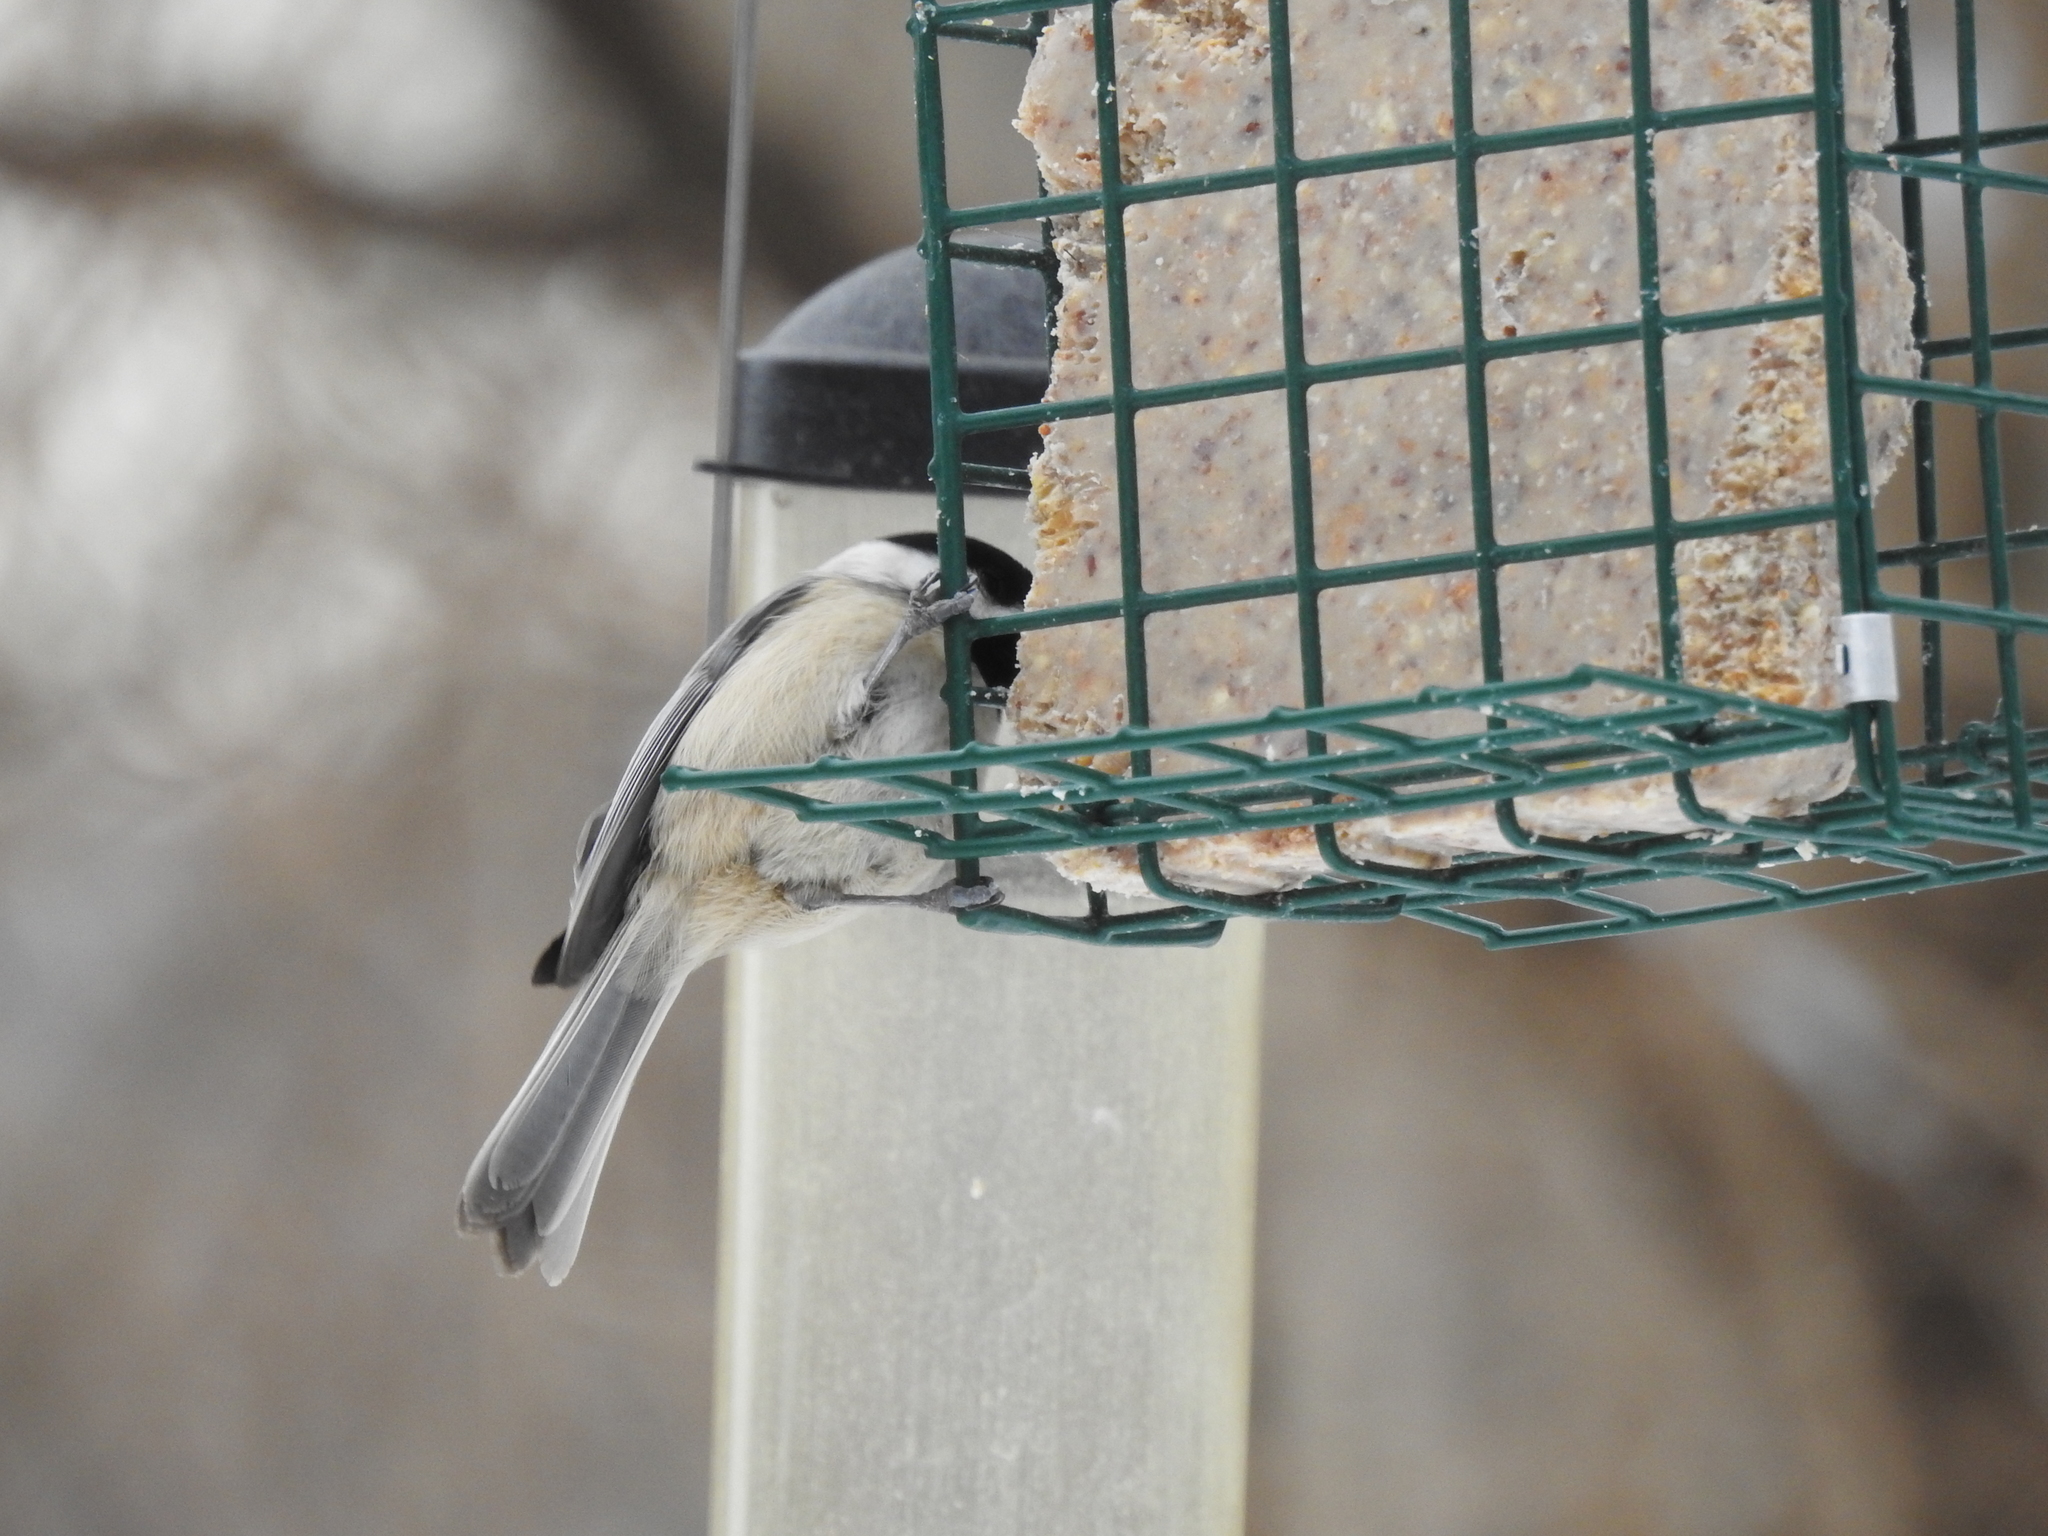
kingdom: Animalia
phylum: Chordata
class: Aves
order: Passeriformes
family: Paridae
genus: Poecile
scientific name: Poecile carolinensis
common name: Carolina chickadee
